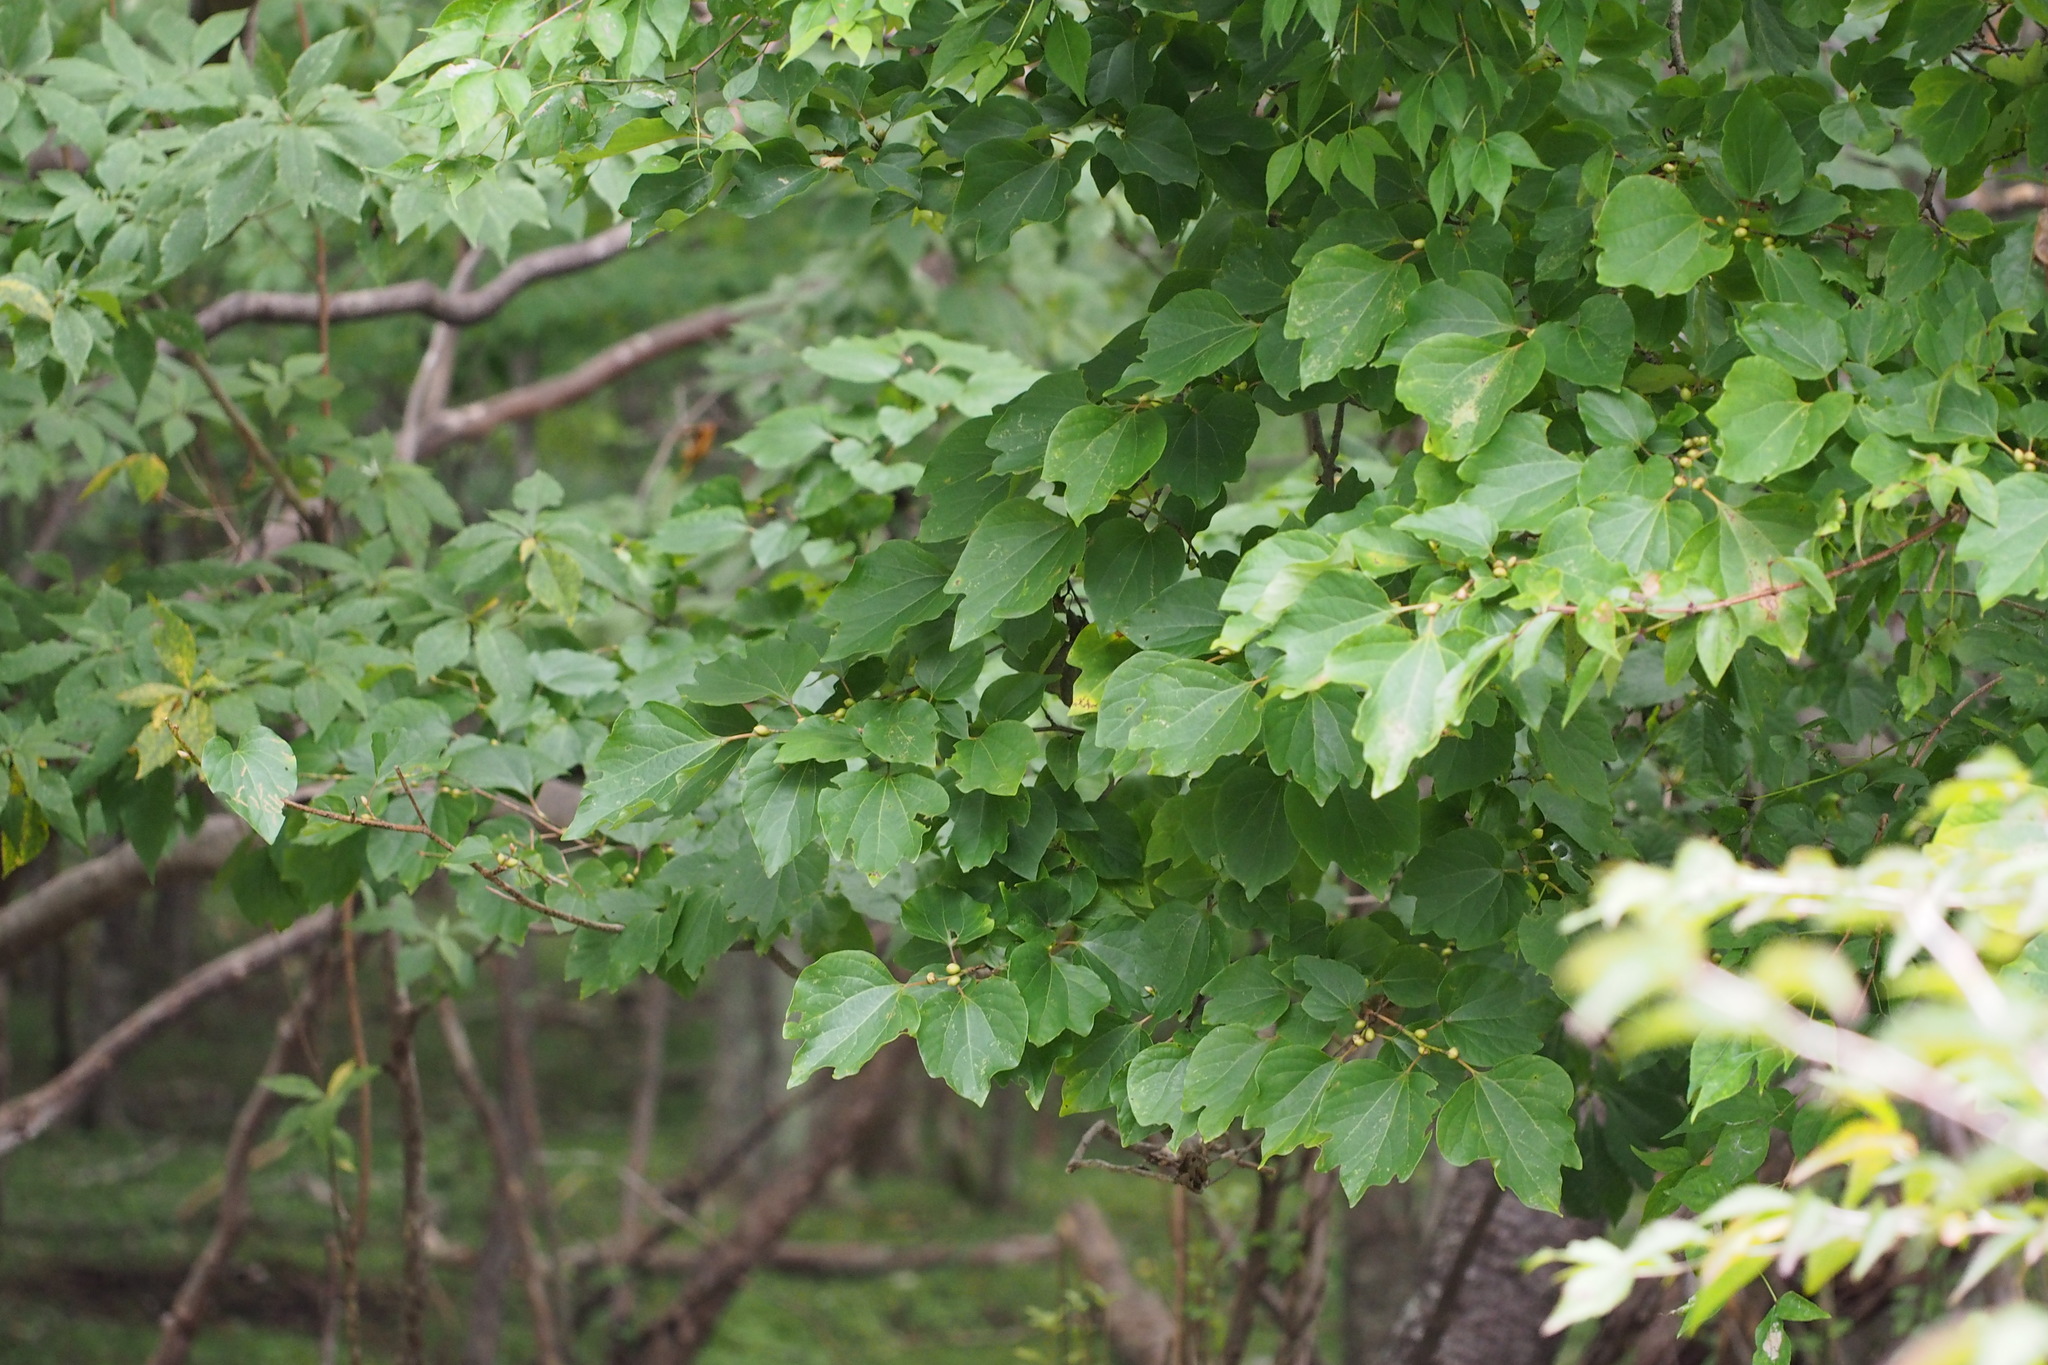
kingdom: Plantae
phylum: Tracheophyta
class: Magnoliopsida
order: Laurales
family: Lauraceae
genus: Lindera
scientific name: Lindera obtusiloba
